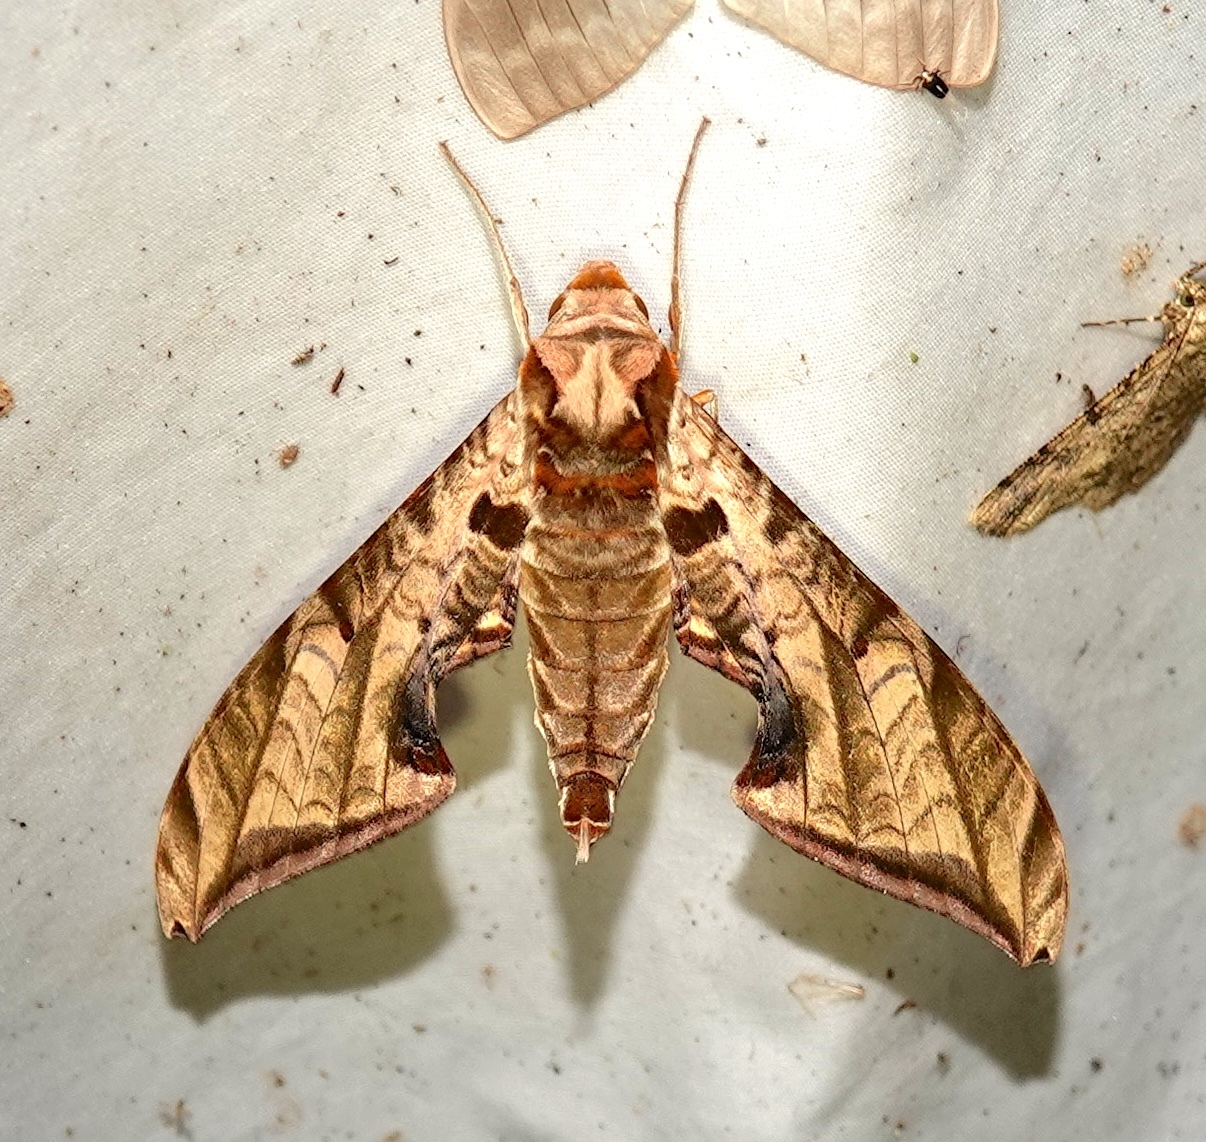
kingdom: Animalia
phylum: Arthropoda
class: Insecta
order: Lepidoptera
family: Sphingidae
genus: Protambulyx
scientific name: Protambulyx eurycles
